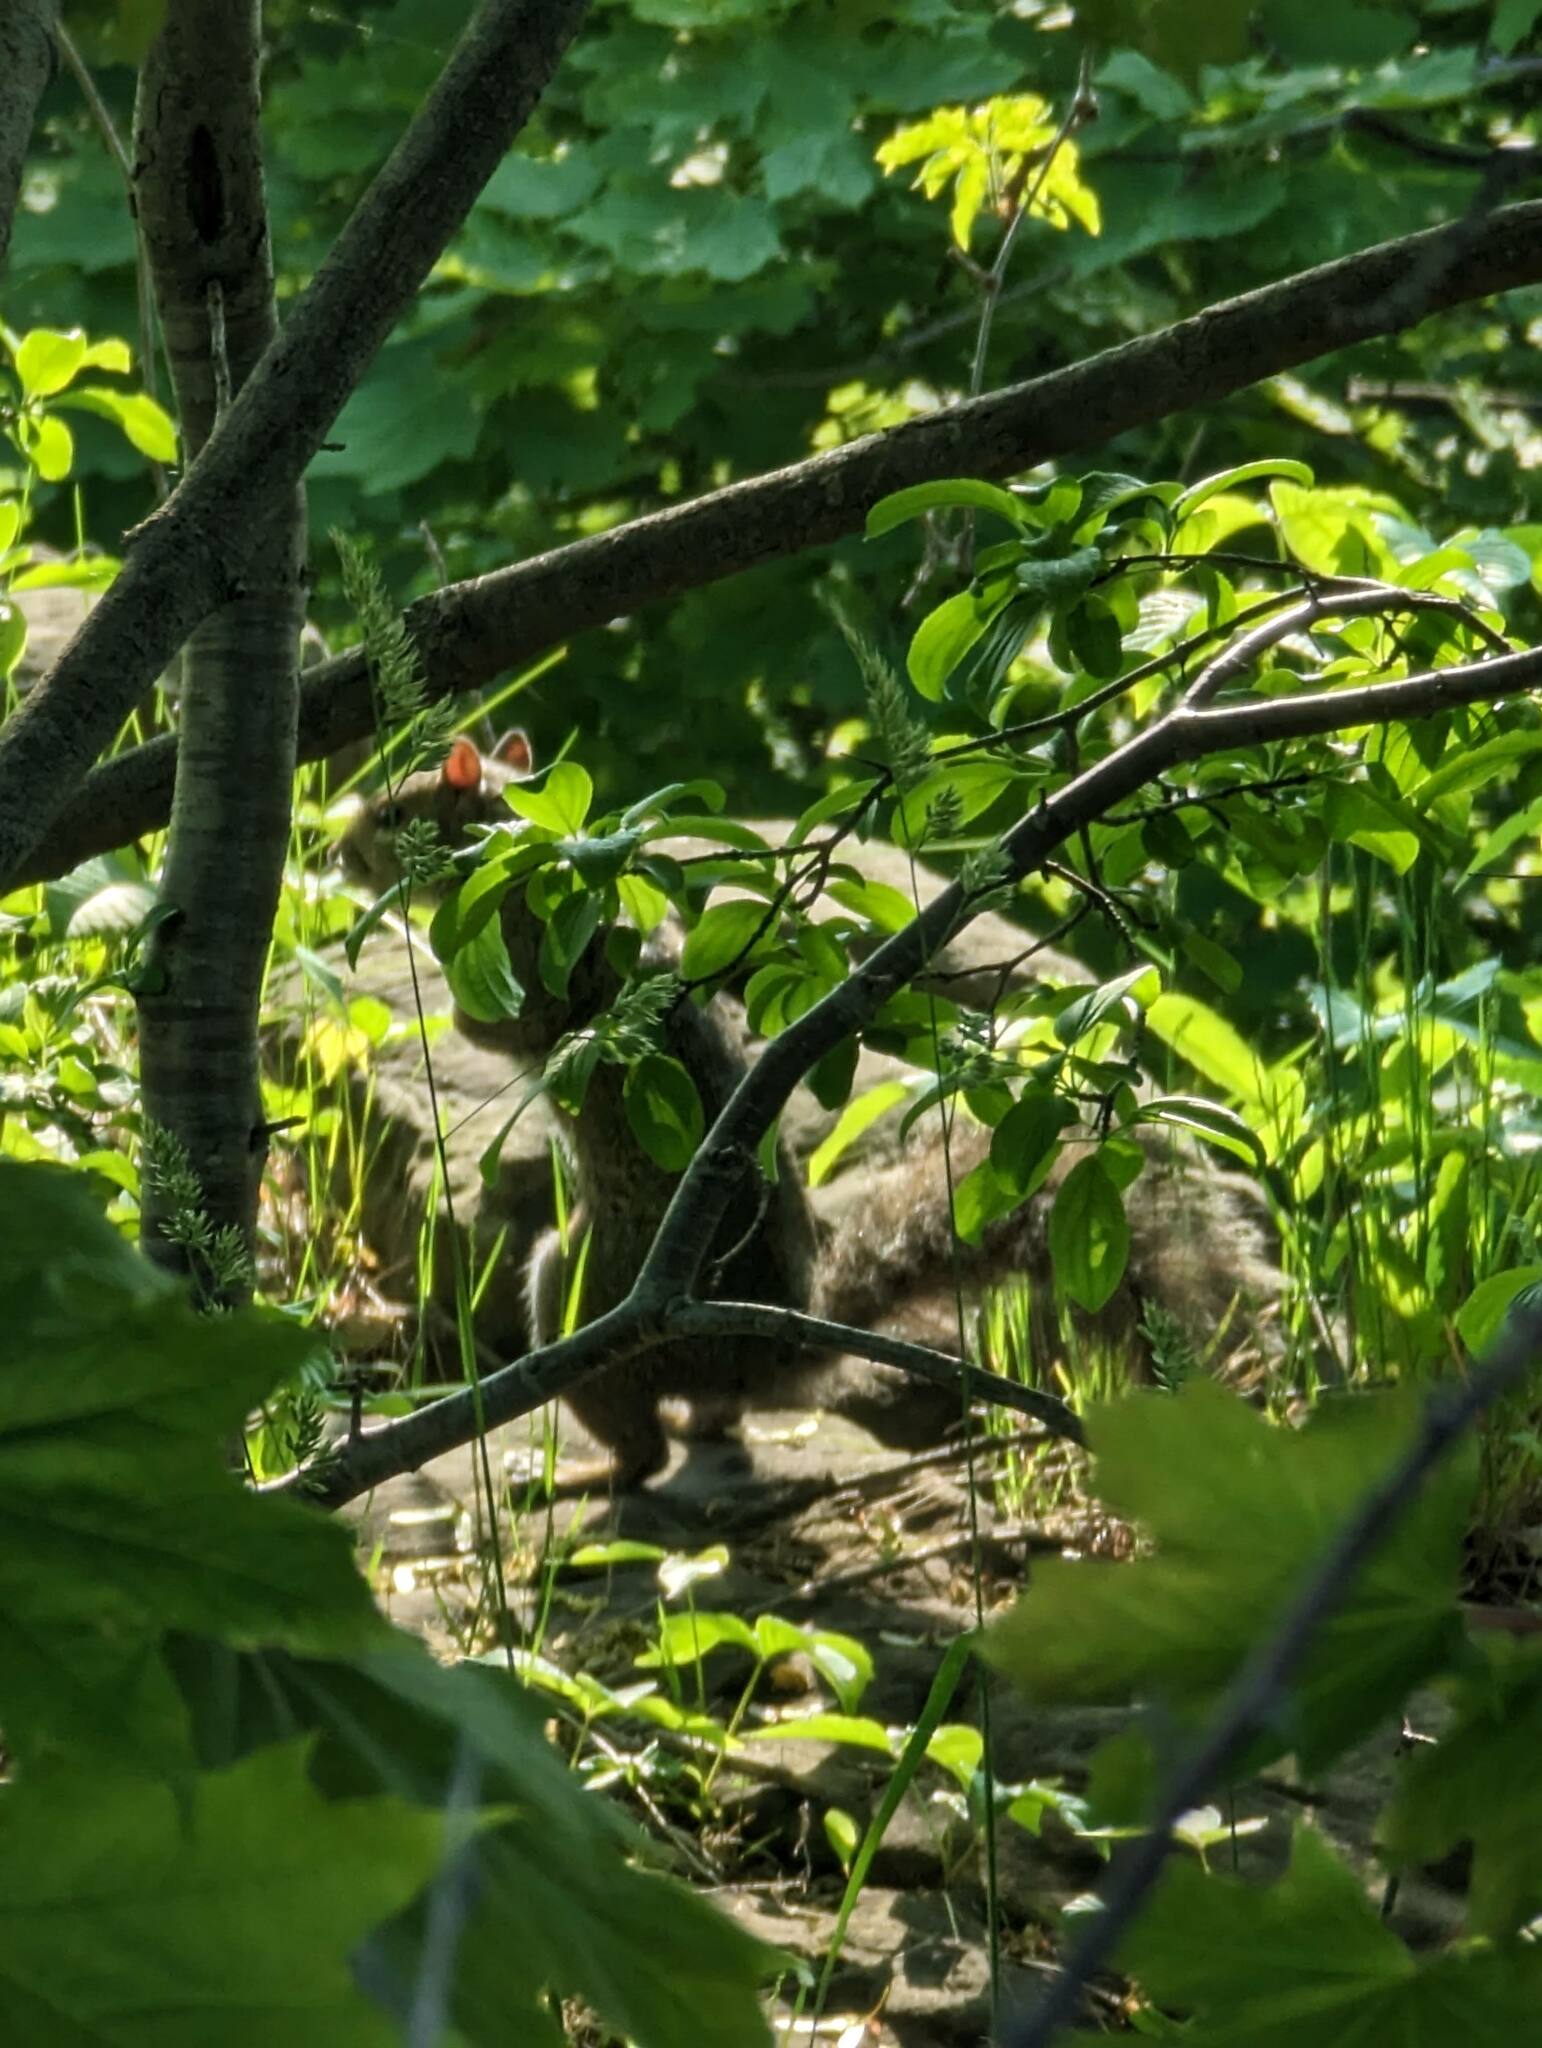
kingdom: Animalia
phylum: Chordata
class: Mammalia
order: Rodentia
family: Sciuridae
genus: Sciurus
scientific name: Sciurus carolinensis
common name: Eastern gray squirrel
